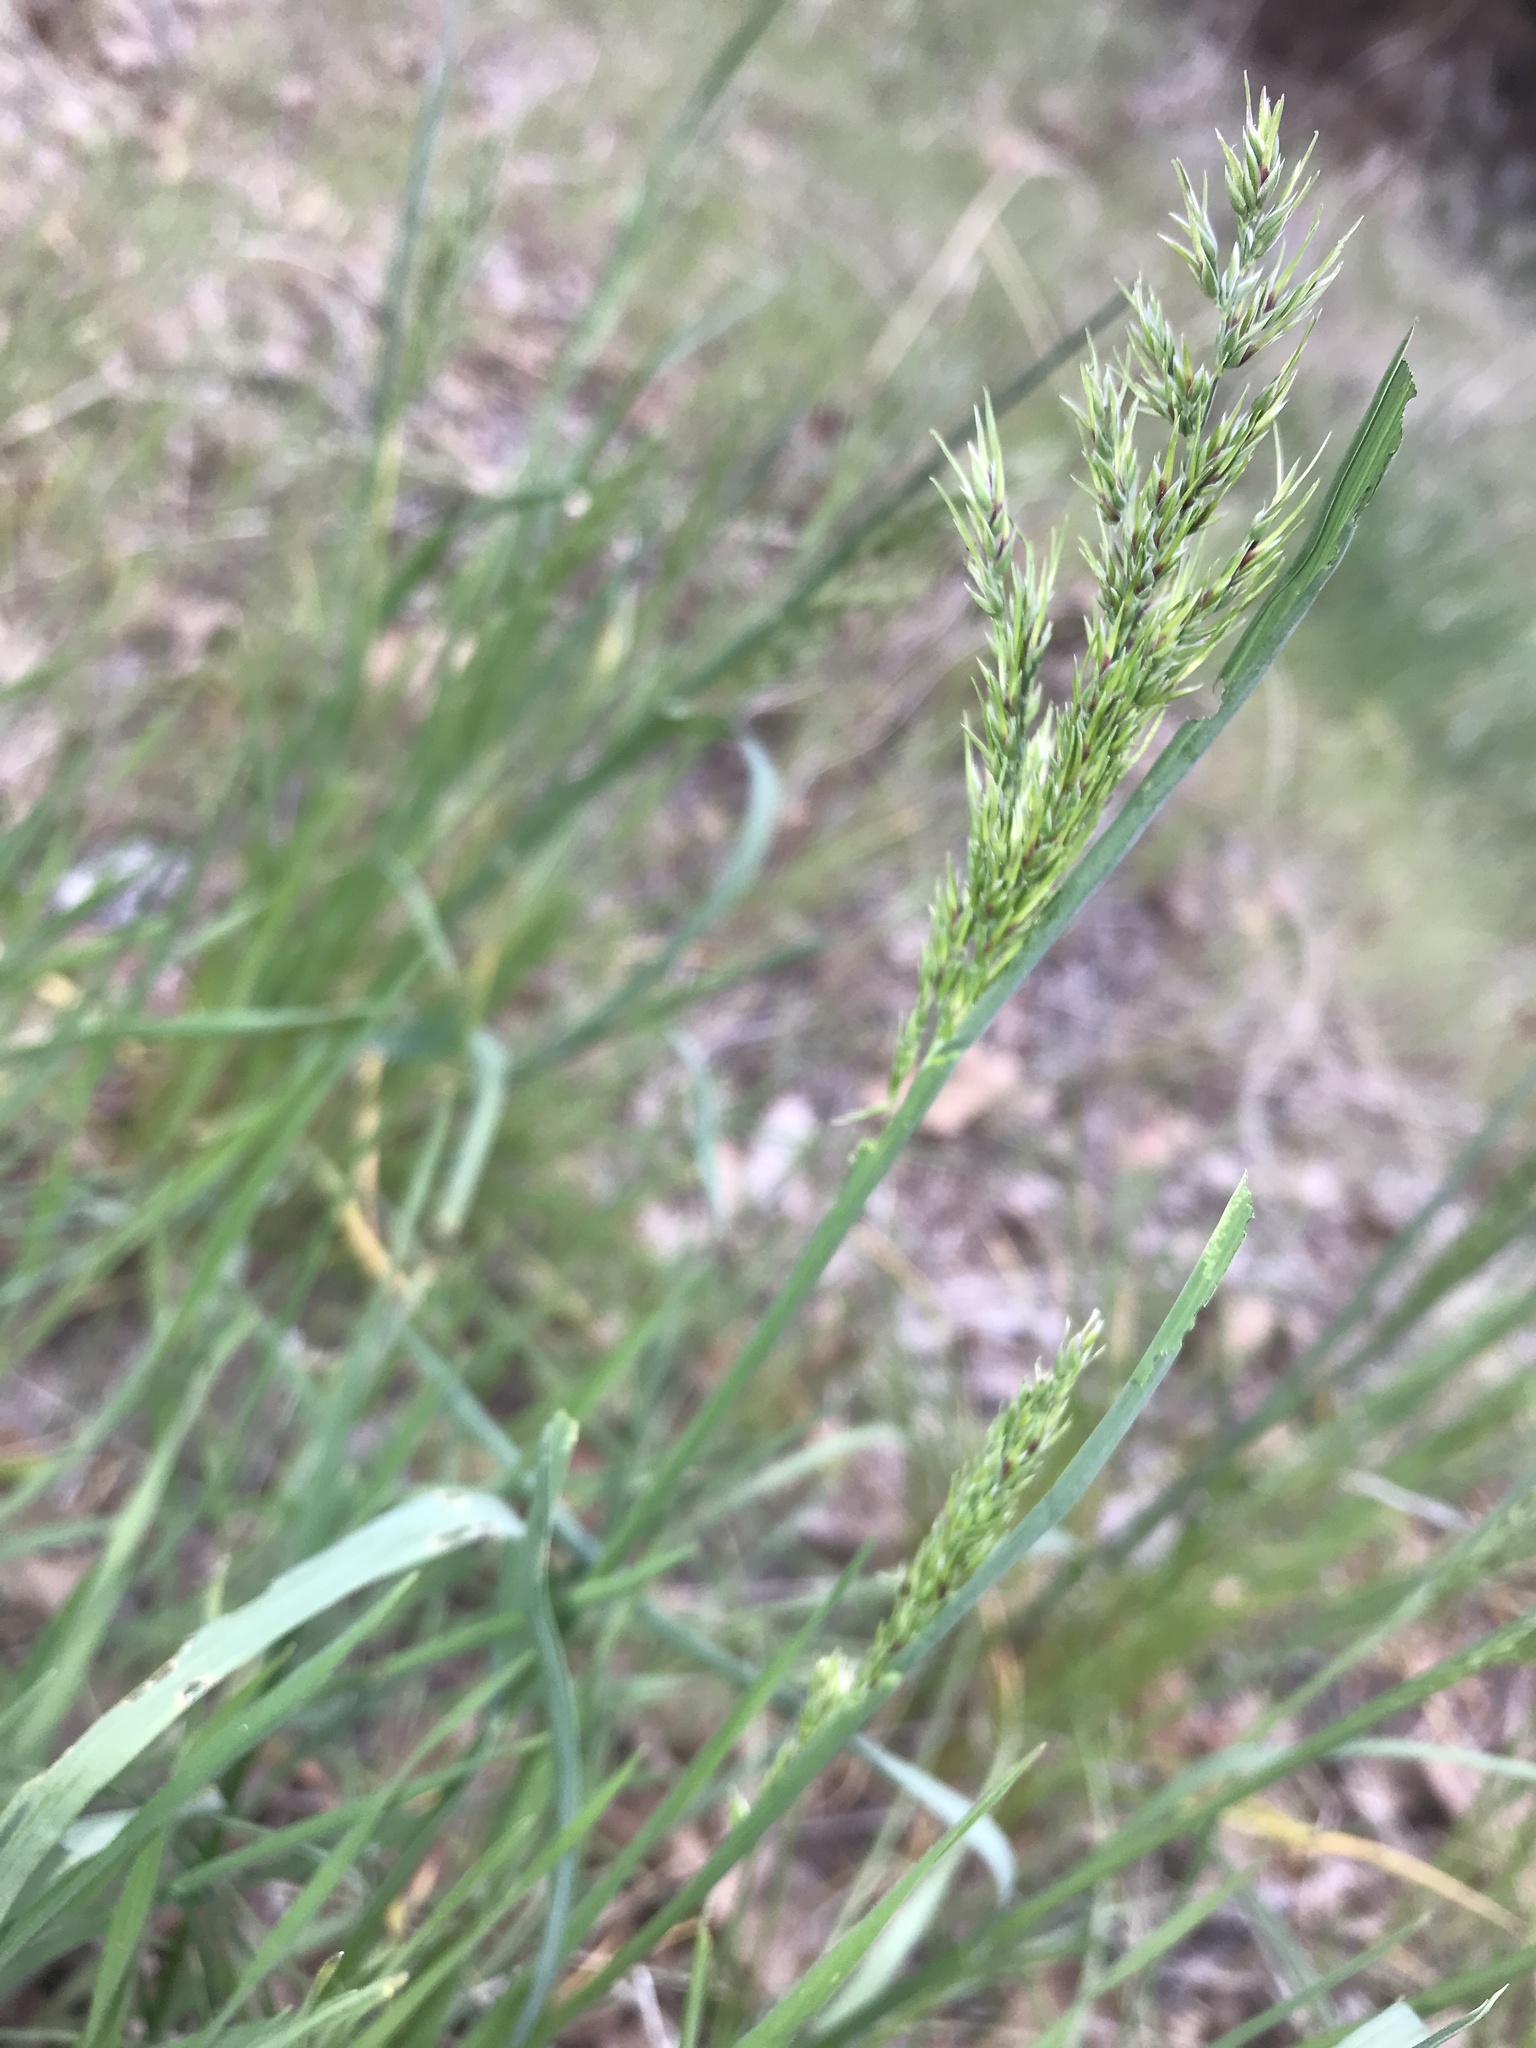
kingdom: Plantae
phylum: Tracheophyta
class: Liliopsida
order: Poales
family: Poaceae
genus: Poa
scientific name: Poa bulbosa
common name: Bulbous bluegrass
